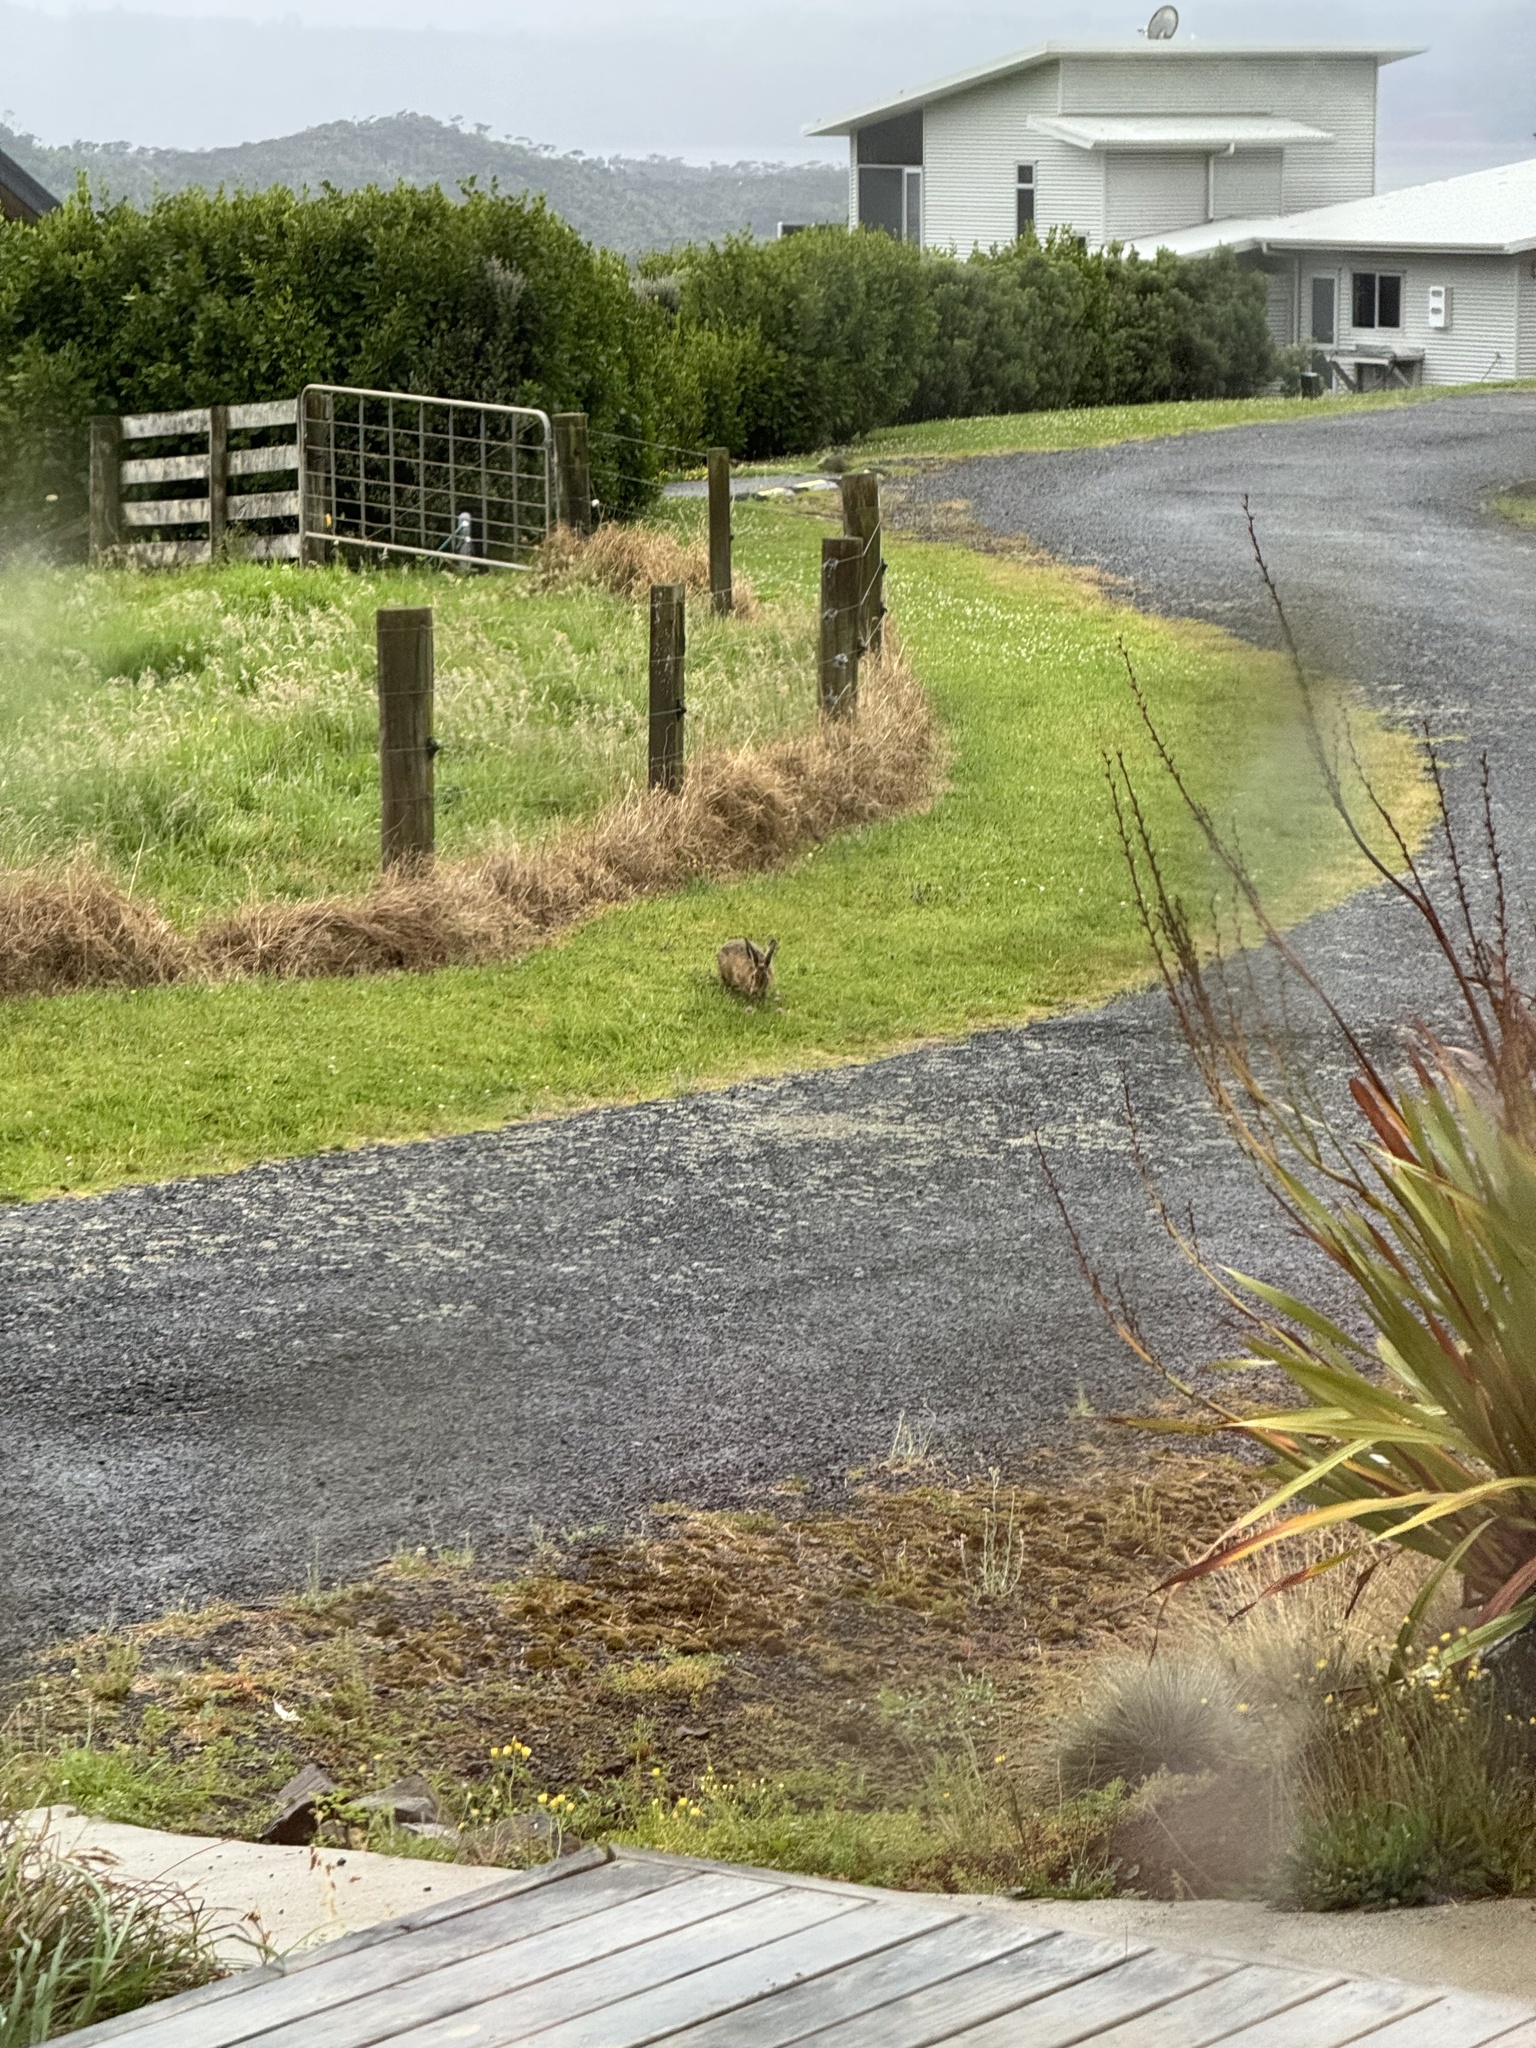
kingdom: Animalia
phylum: Chordata
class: Mammalia
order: Lagomorpha
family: Leporidae
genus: Lepus
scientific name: Lepus europaeus
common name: European hare
